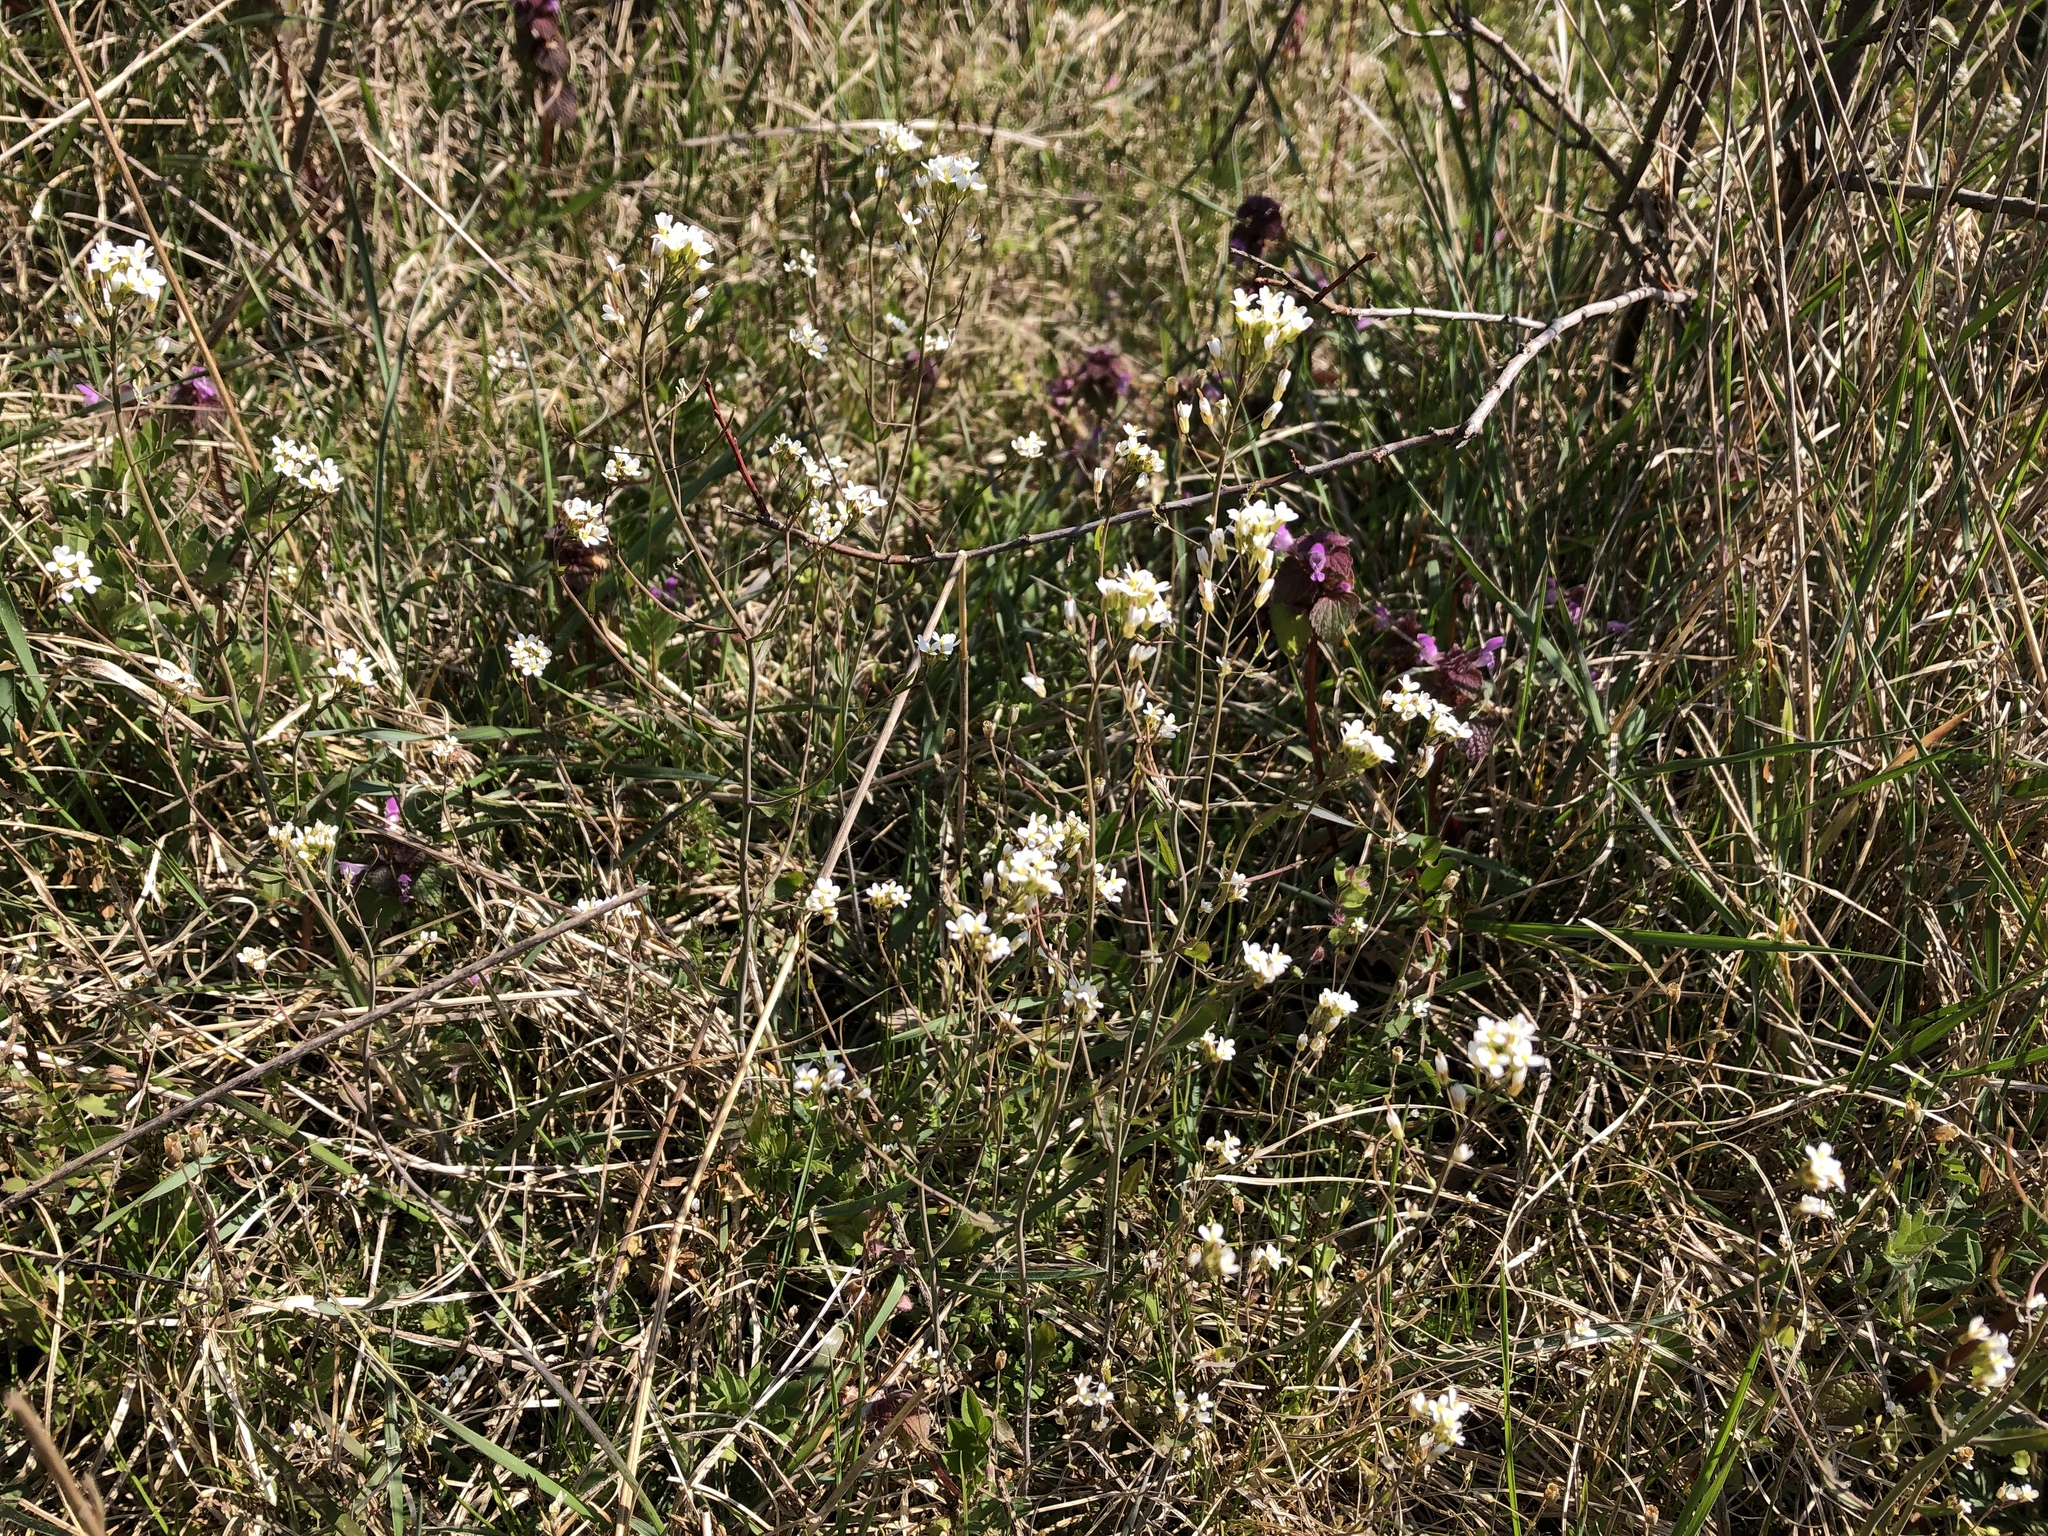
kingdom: Plantae
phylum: Tracheophyta
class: Magnoliopsida
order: Brassicales
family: Brassicaceae
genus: Arabidopsis
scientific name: Arabidopsis thaliana
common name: Thale cress
